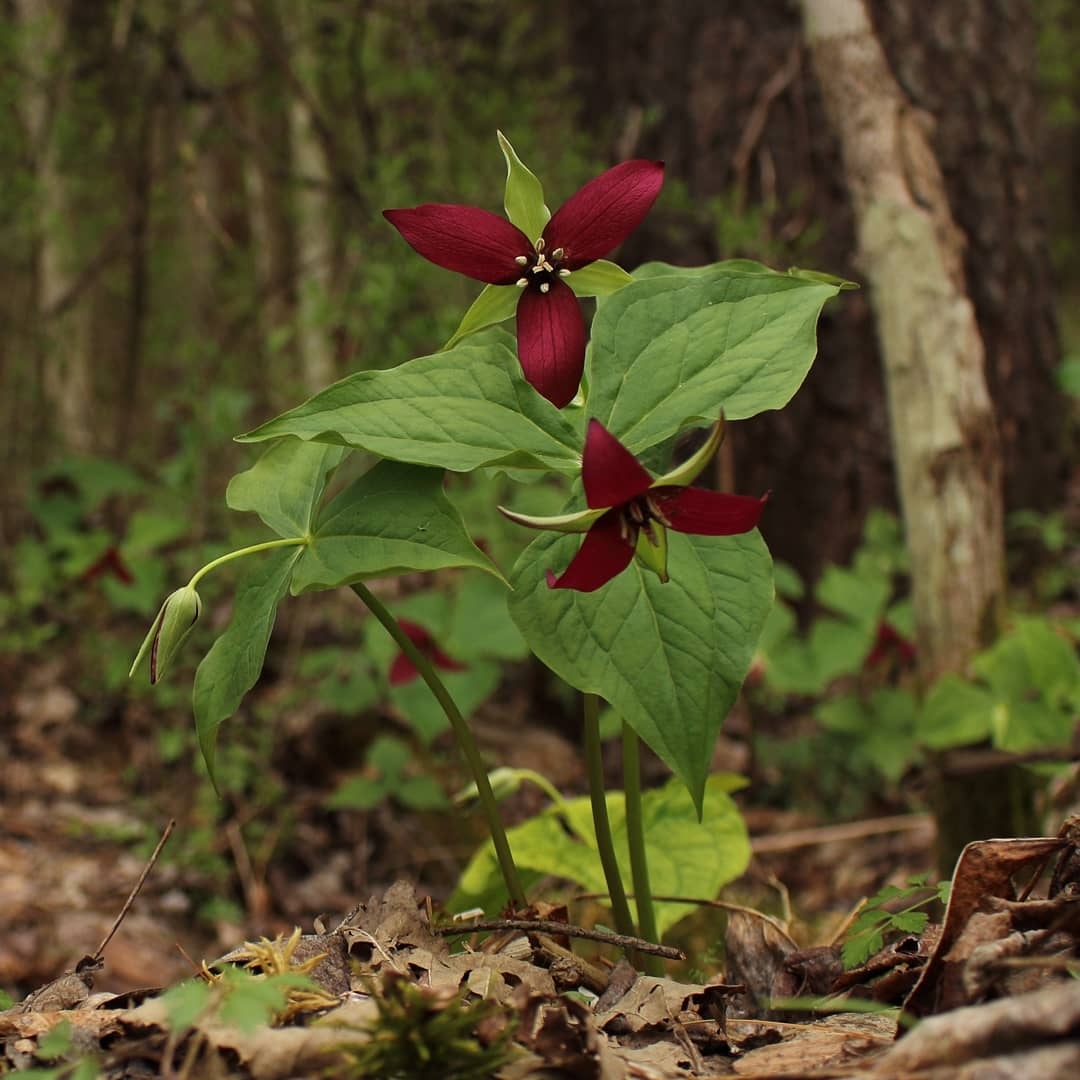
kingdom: Plantae
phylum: Tracheophyta
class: Liliopsida
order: Liliales
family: Melanthiaceae
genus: Trillium
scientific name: Trillium erectum
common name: Purple trillium
